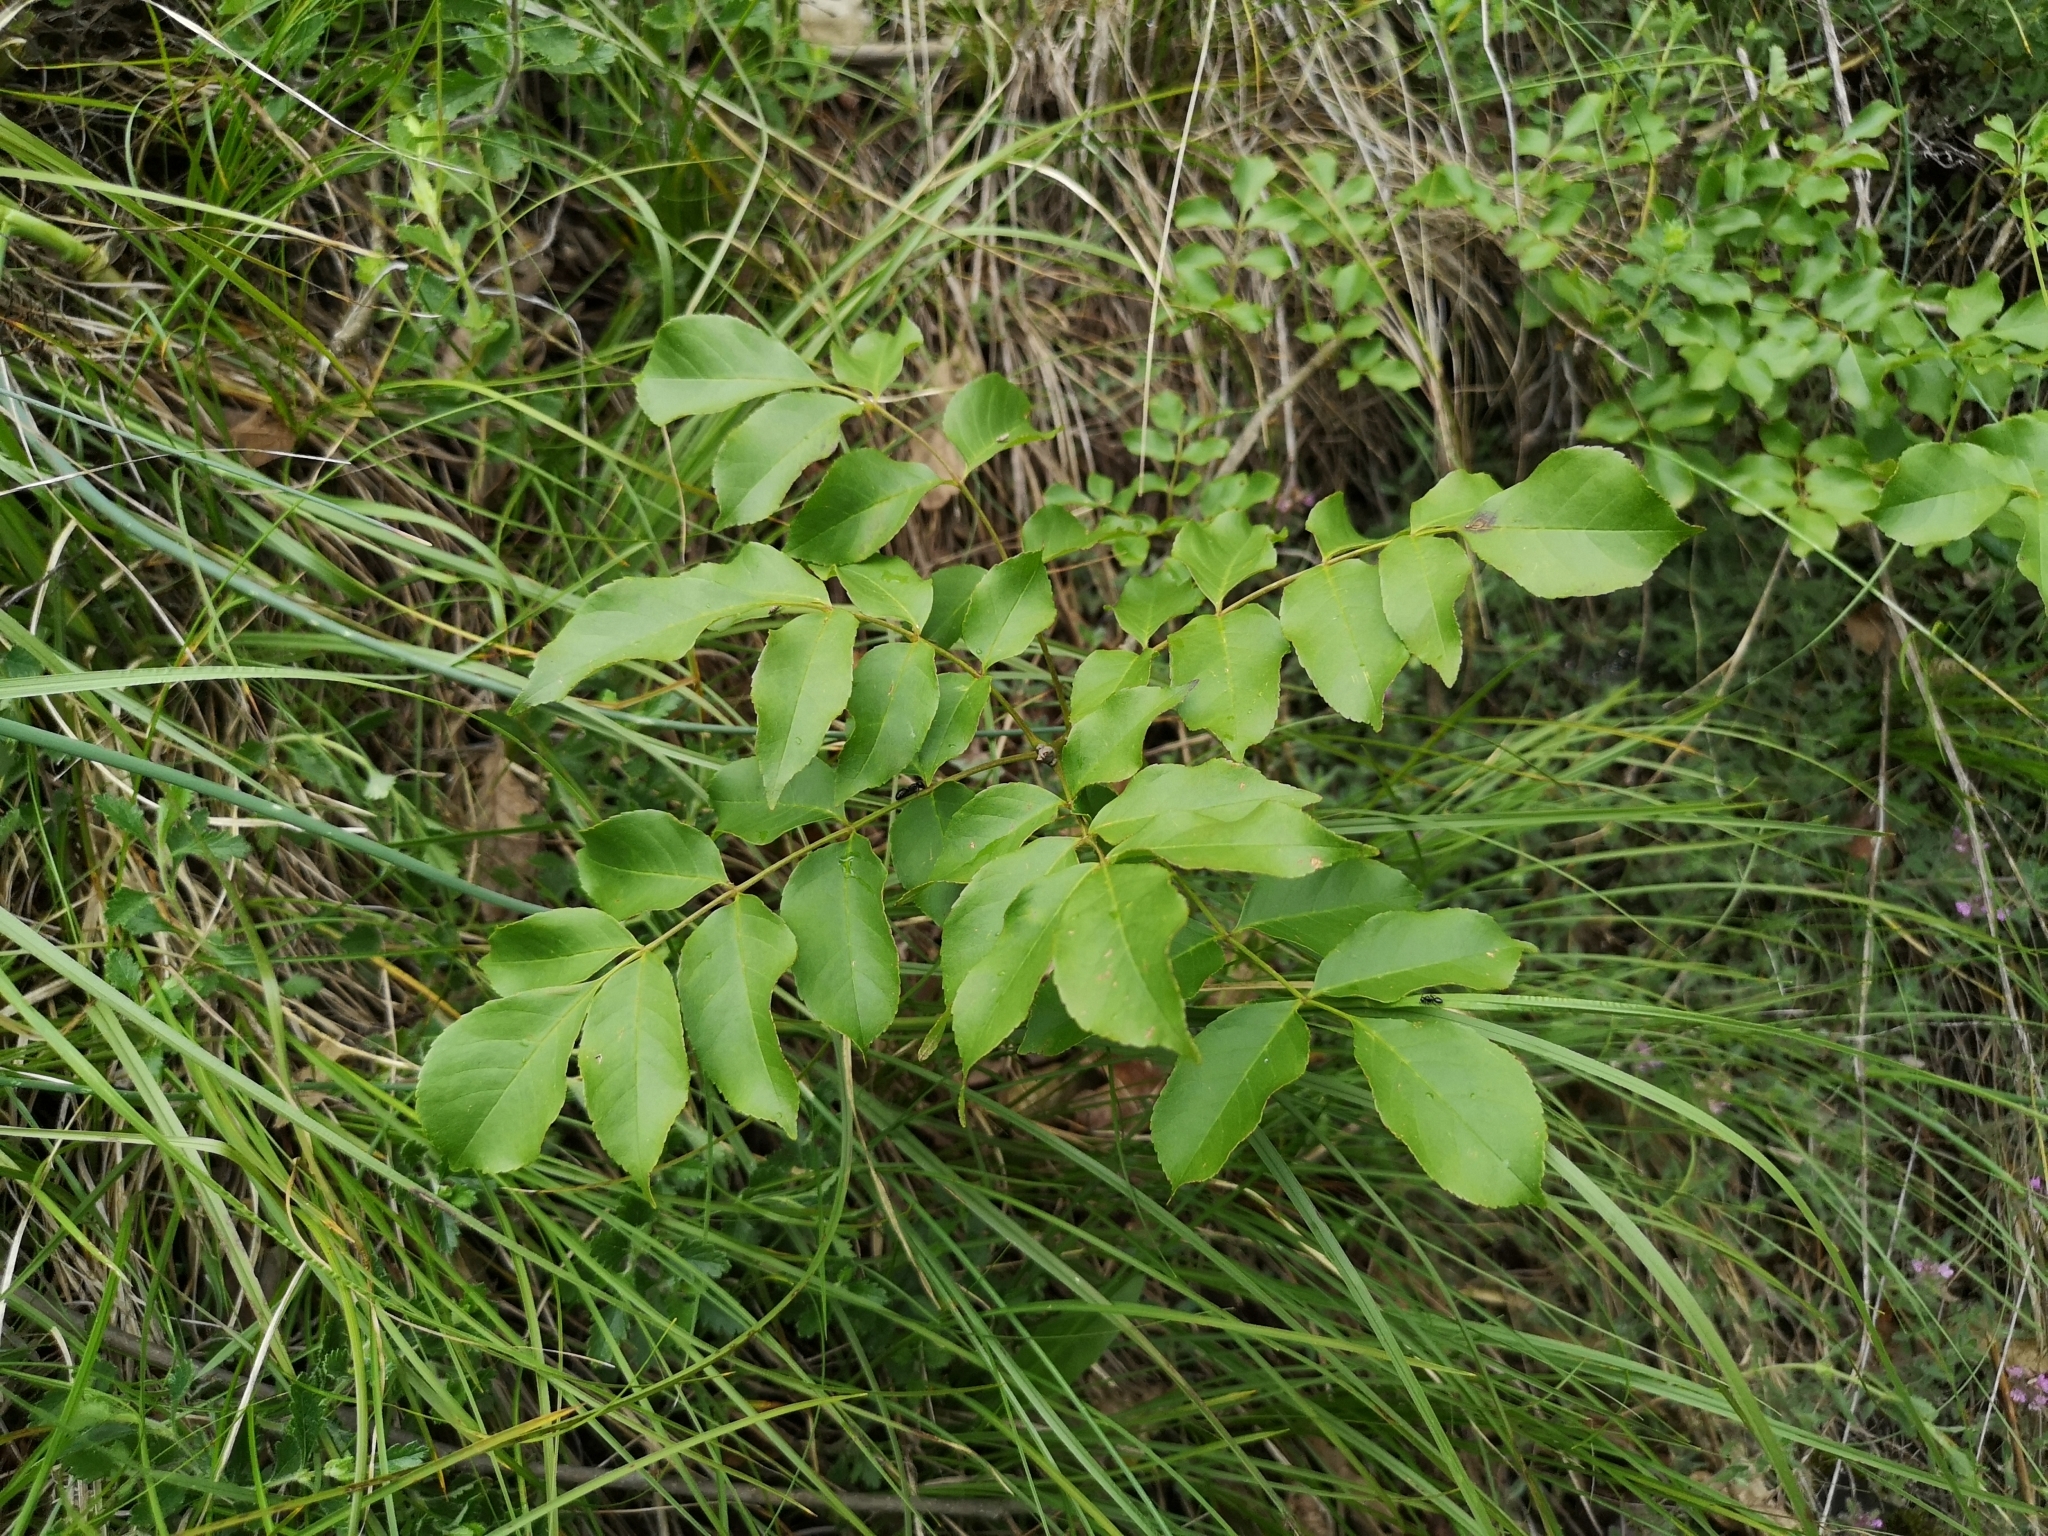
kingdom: Plantae
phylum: Tracheophyta
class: Magnoliopsida
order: Lamiales
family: Oleaceae
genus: Fraxinus
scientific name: Fraxinus ornus
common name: Manna ash
